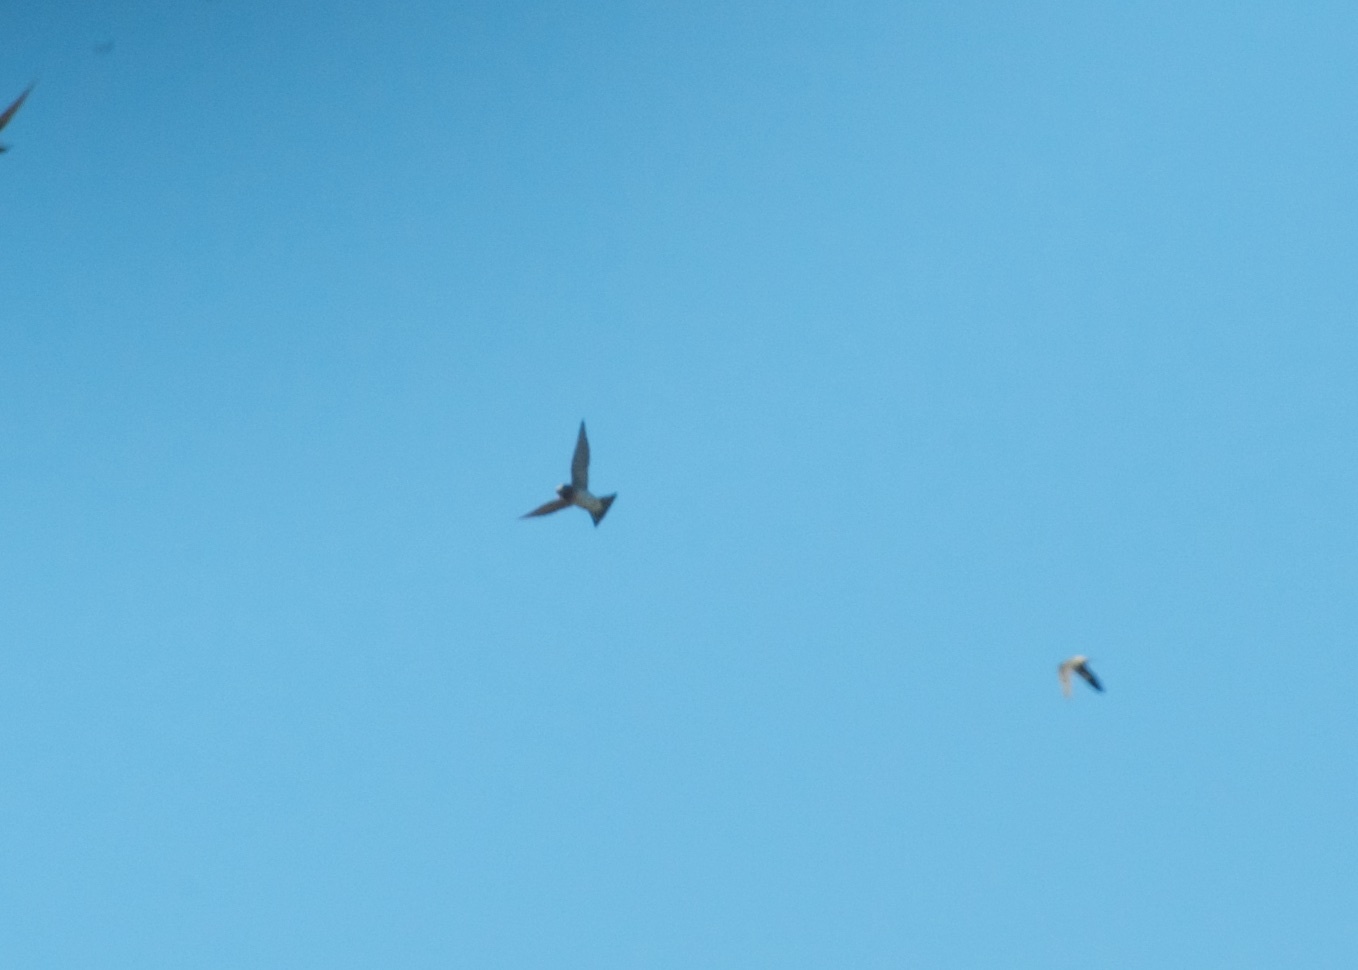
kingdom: Animalia
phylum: Chordata
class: Aves
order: Passeriformes
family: Hirundinidae
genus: Petrochelidon
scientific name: Petrochelidon pyrrhonota
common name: American cliff swallow
